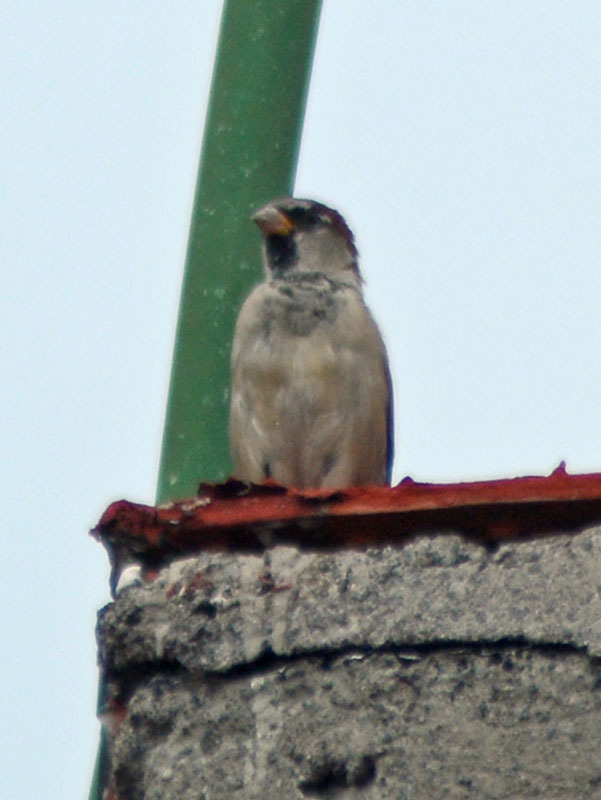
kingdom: Animalia
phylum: Chordata
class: Aves
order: Passeriformes
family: Passeridae
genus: Passer
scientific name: Passer domesticus
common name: House sparrow
